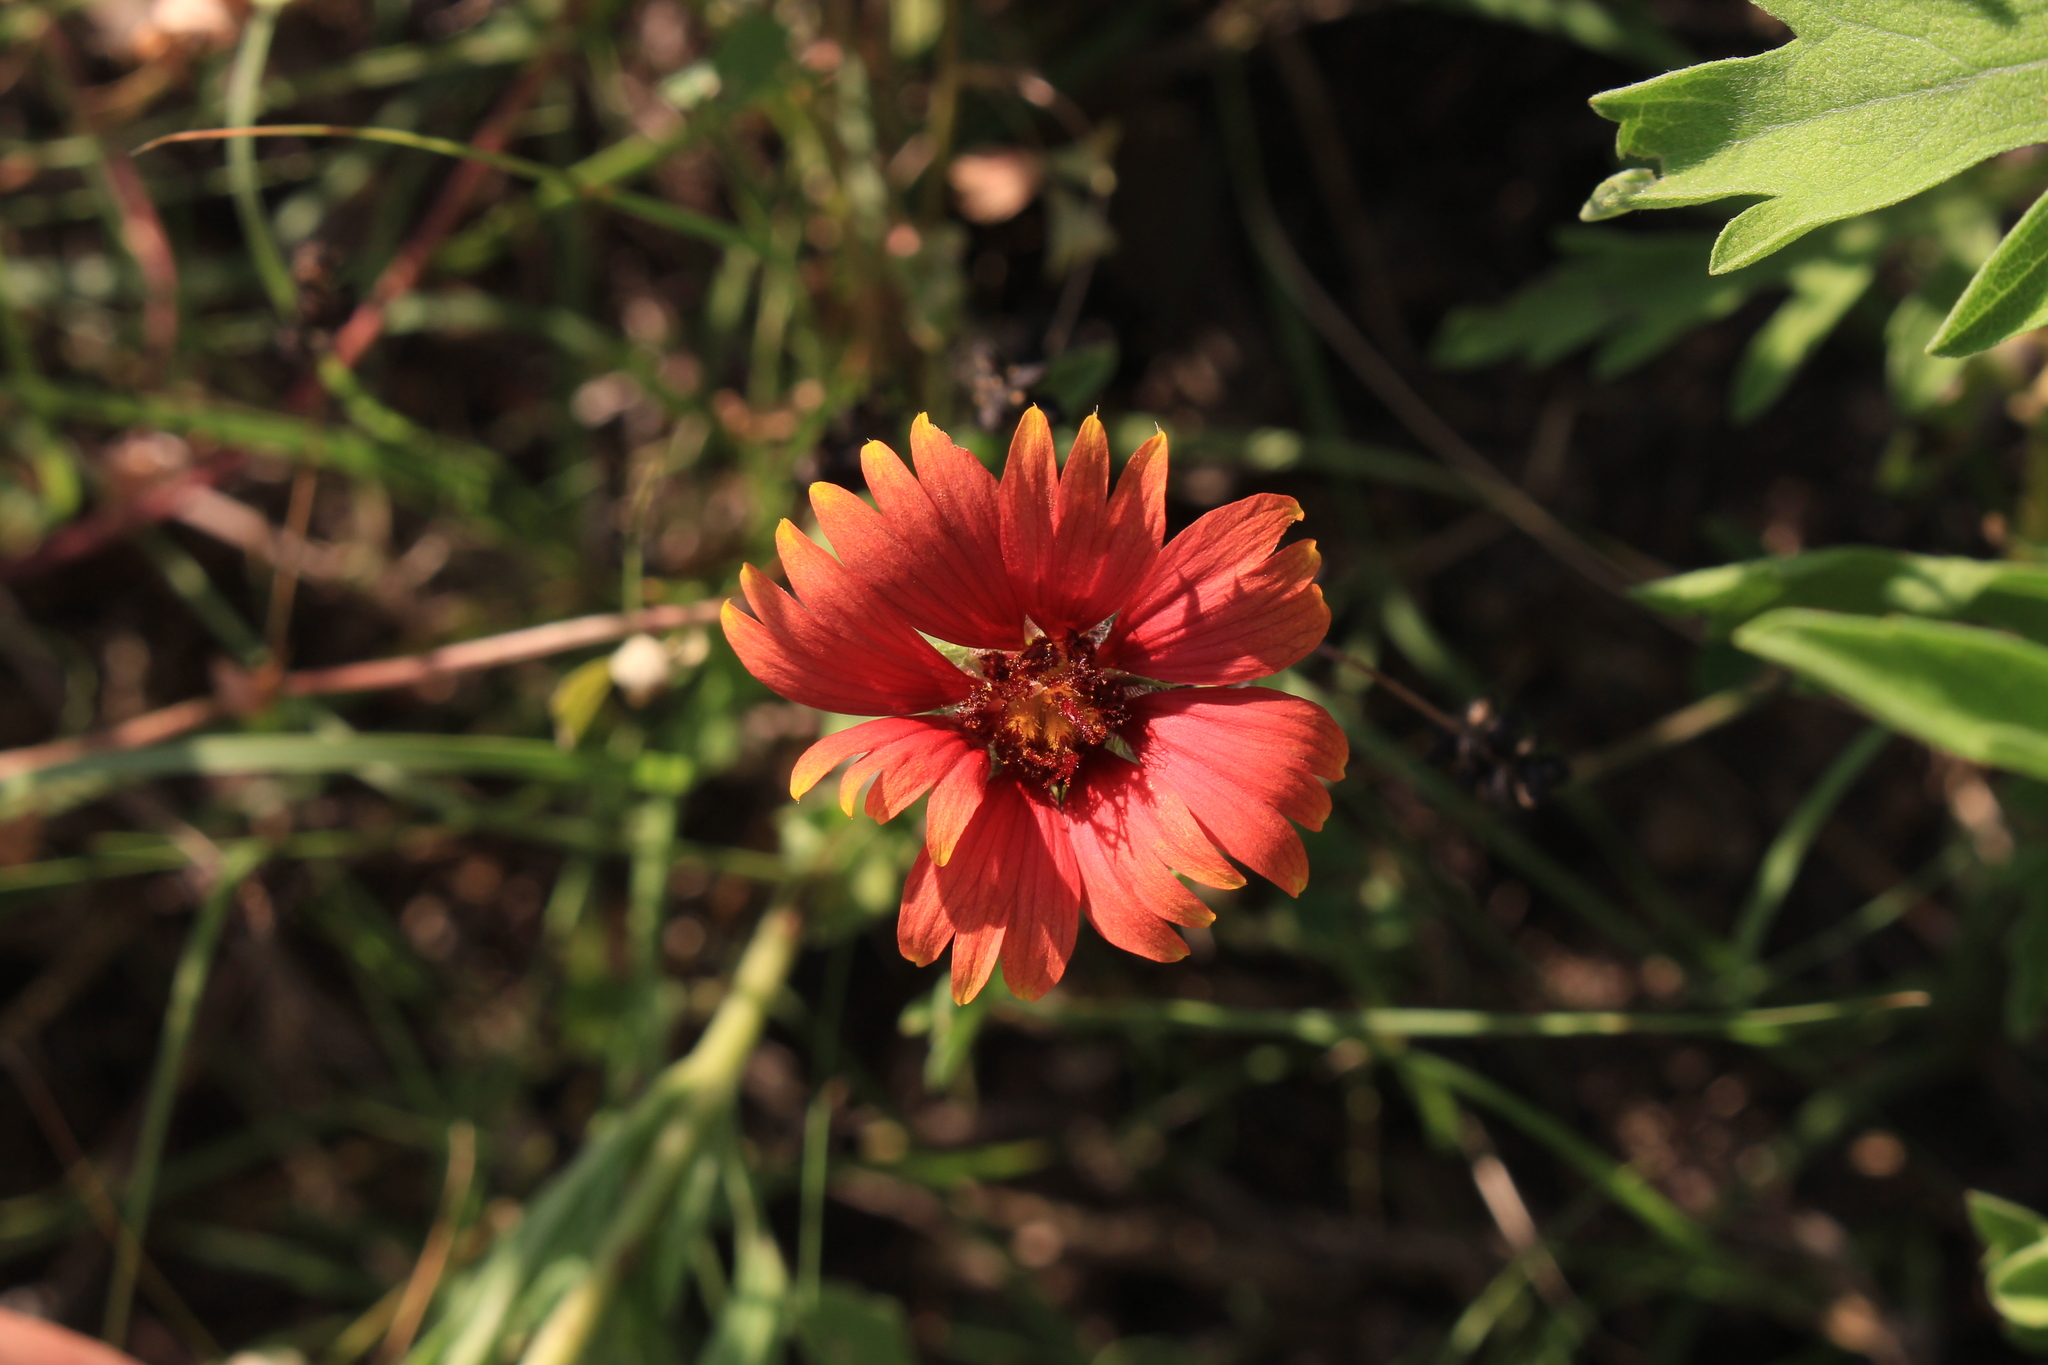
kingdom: Plantae
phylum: Tracheophyta
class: Magnoliopsida
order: Asterales
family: Asteraceae
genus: Gaillardia
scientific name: Gaillardia pulchella
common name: Firewheel
